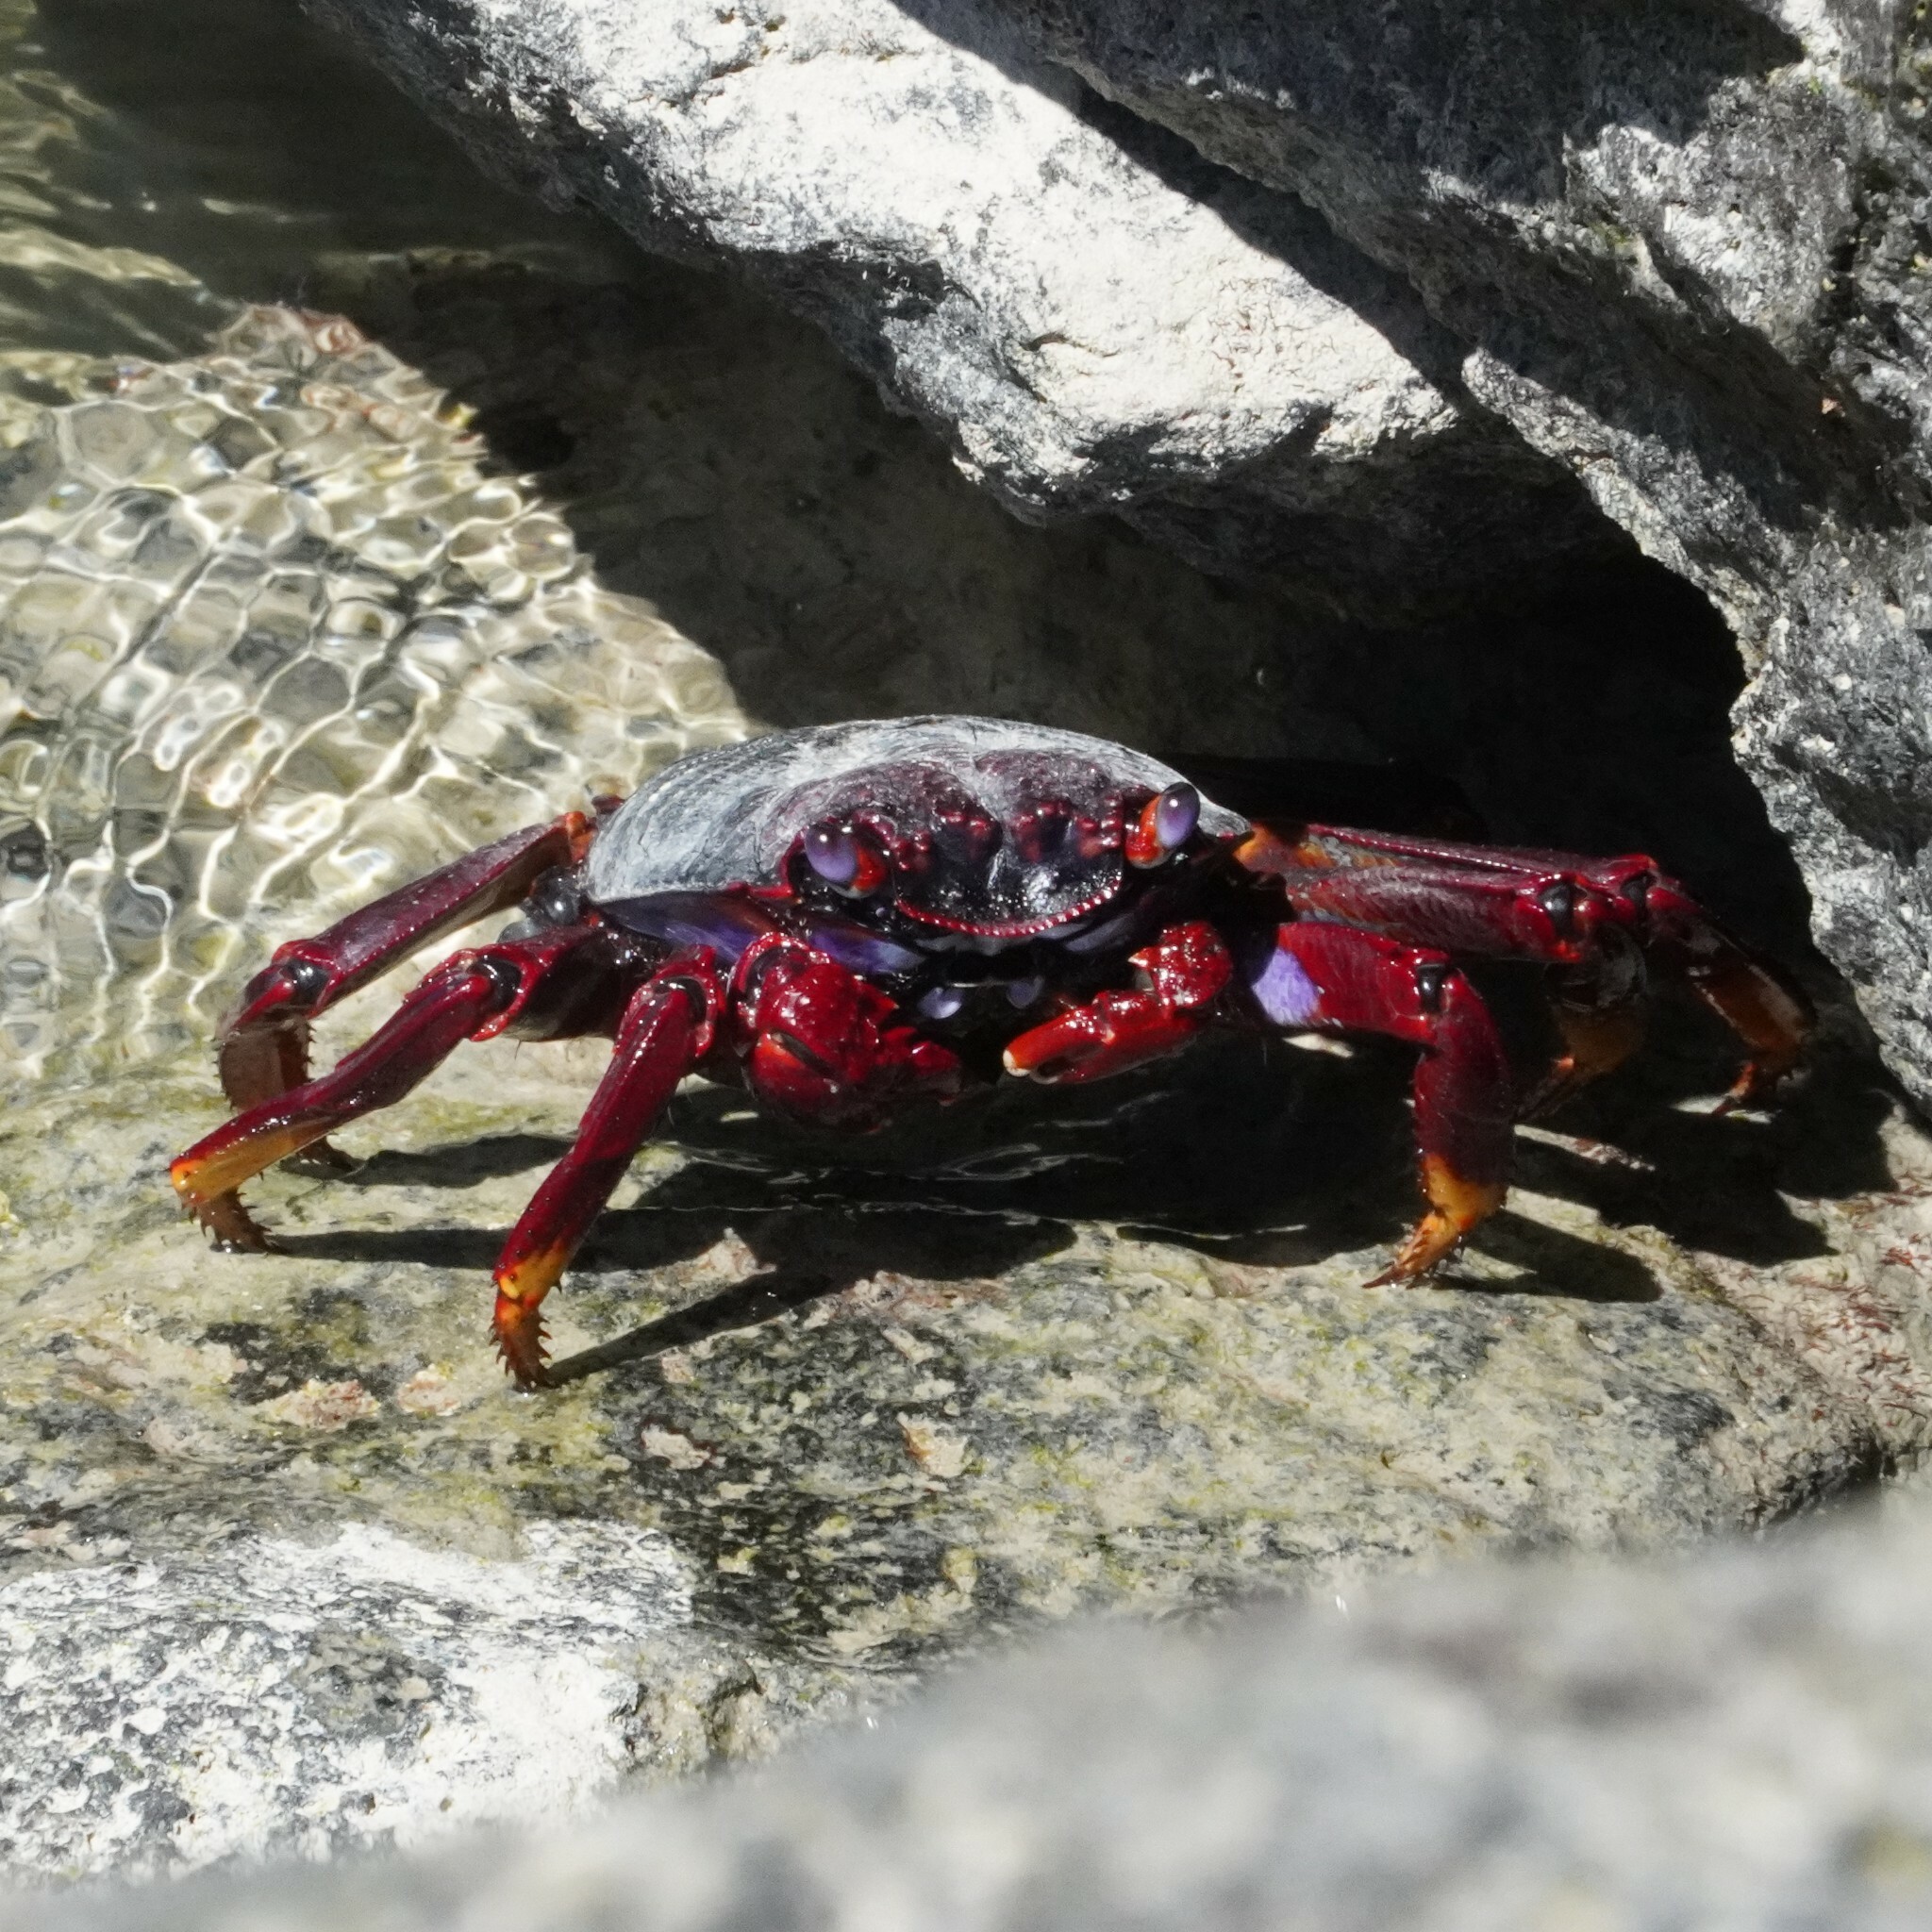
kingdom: Animalia
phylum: Arthropoda
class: Malacostraca
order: Decapoda
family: Grapsidae
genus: Grapsus
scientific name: Grapsus adscensionis
